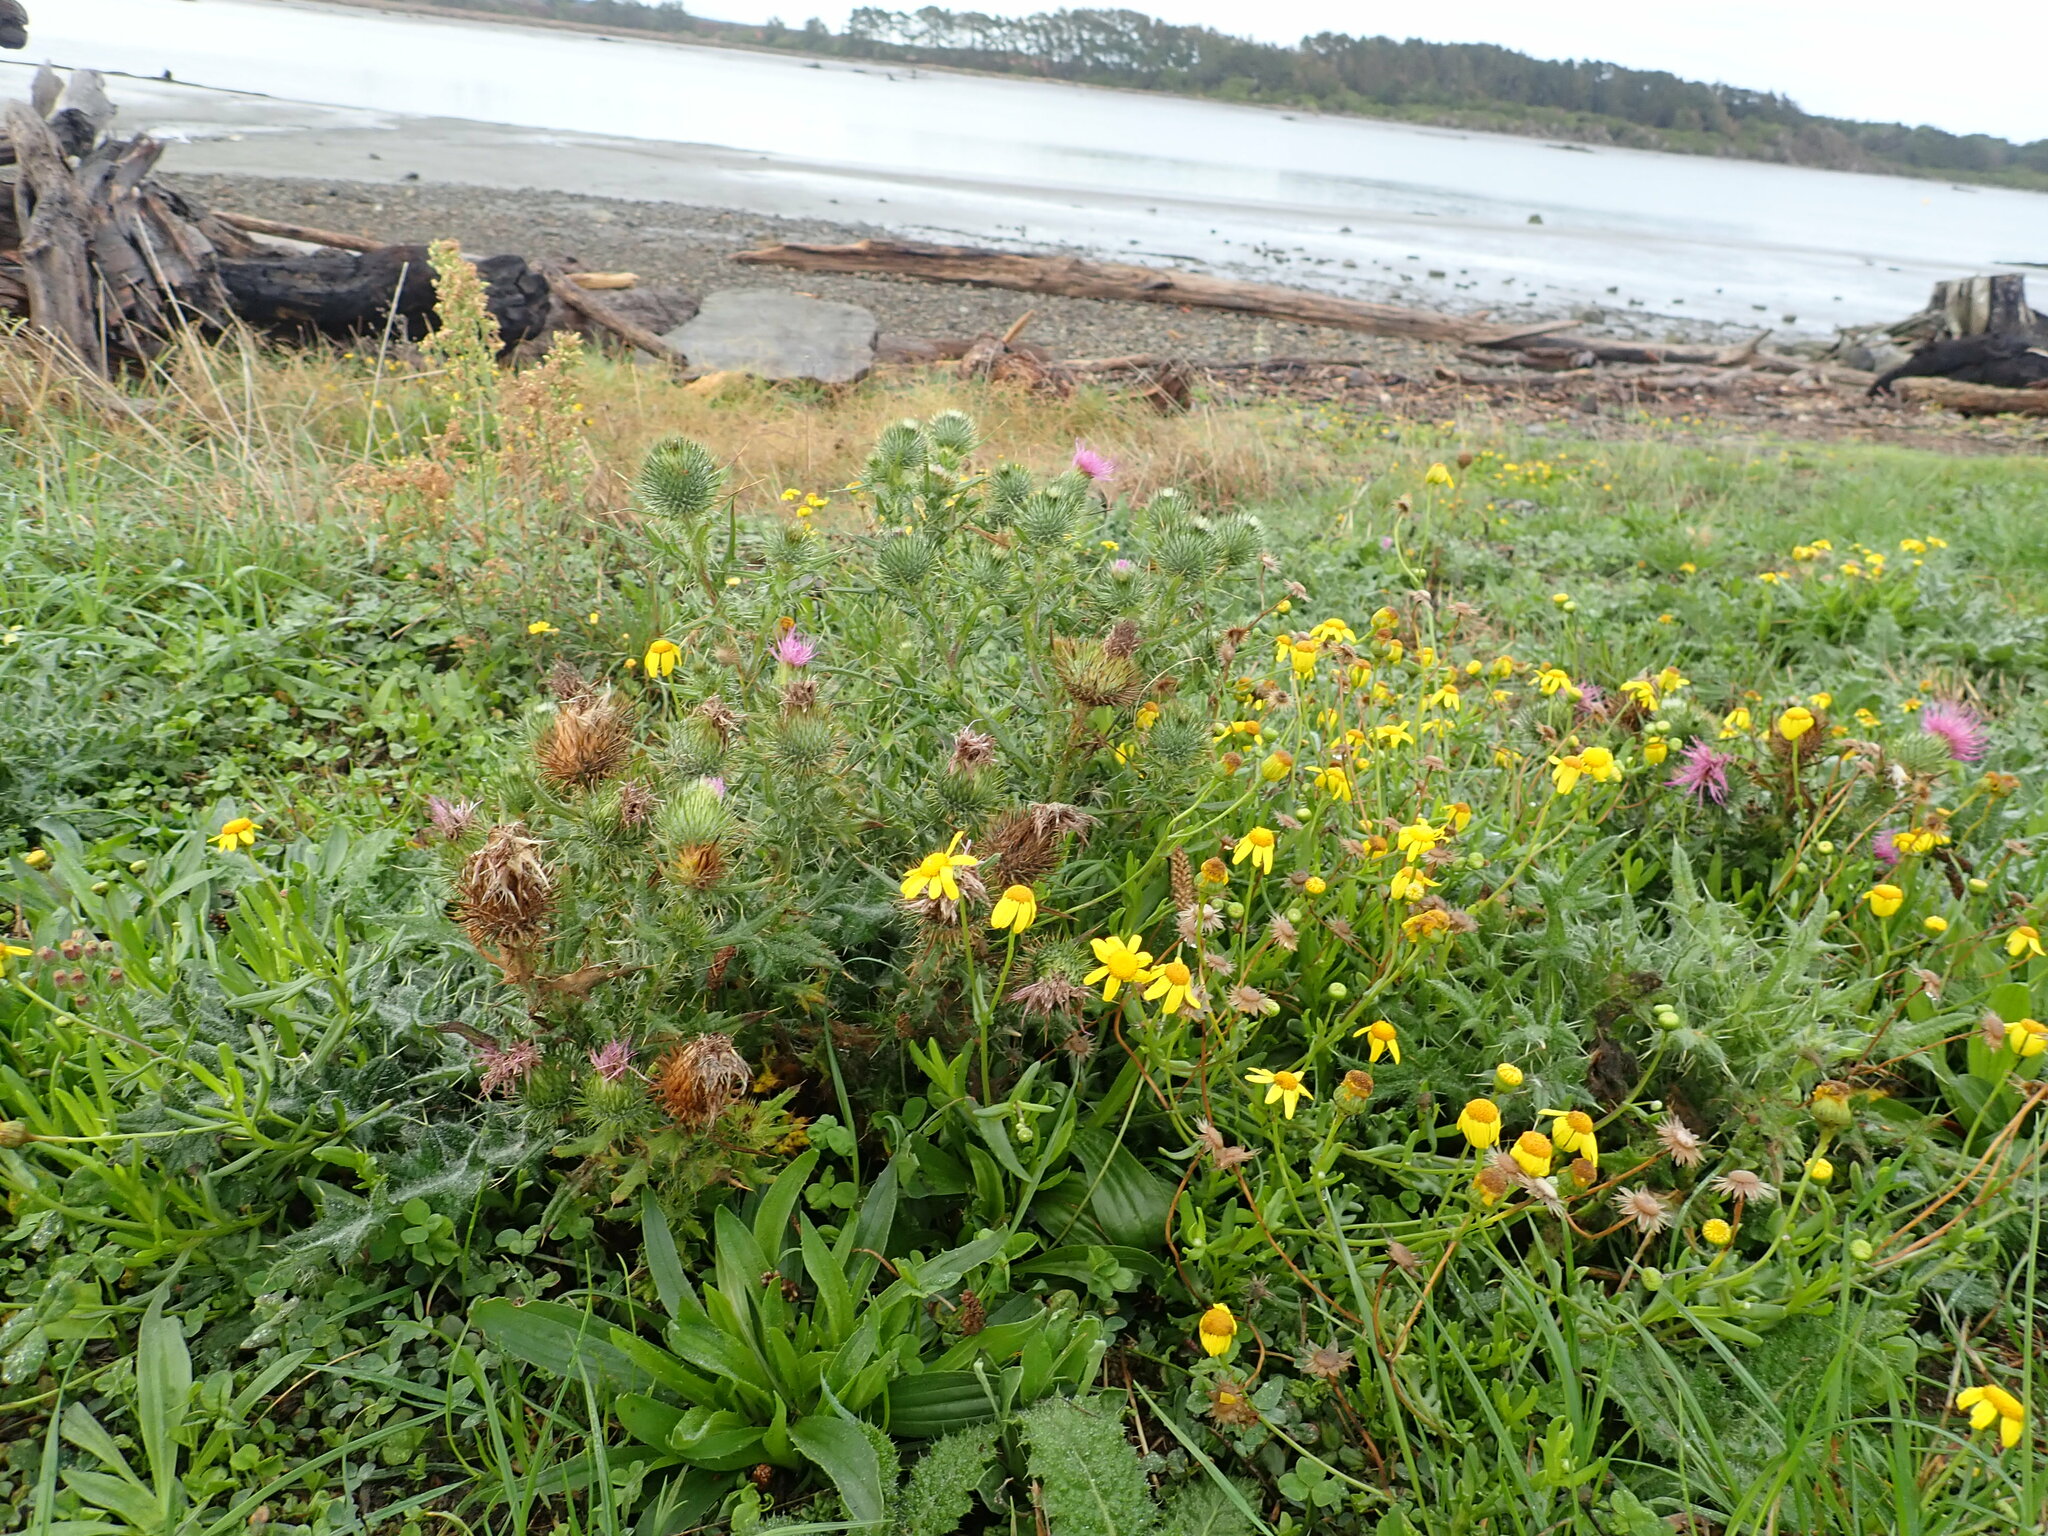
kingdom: Plantae
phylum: Tracheophyta
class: Magnoliopsida
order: Asterales
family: Asteraceae
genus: Cirsium
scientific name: Cirsium vulgare
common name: Bull thistle
